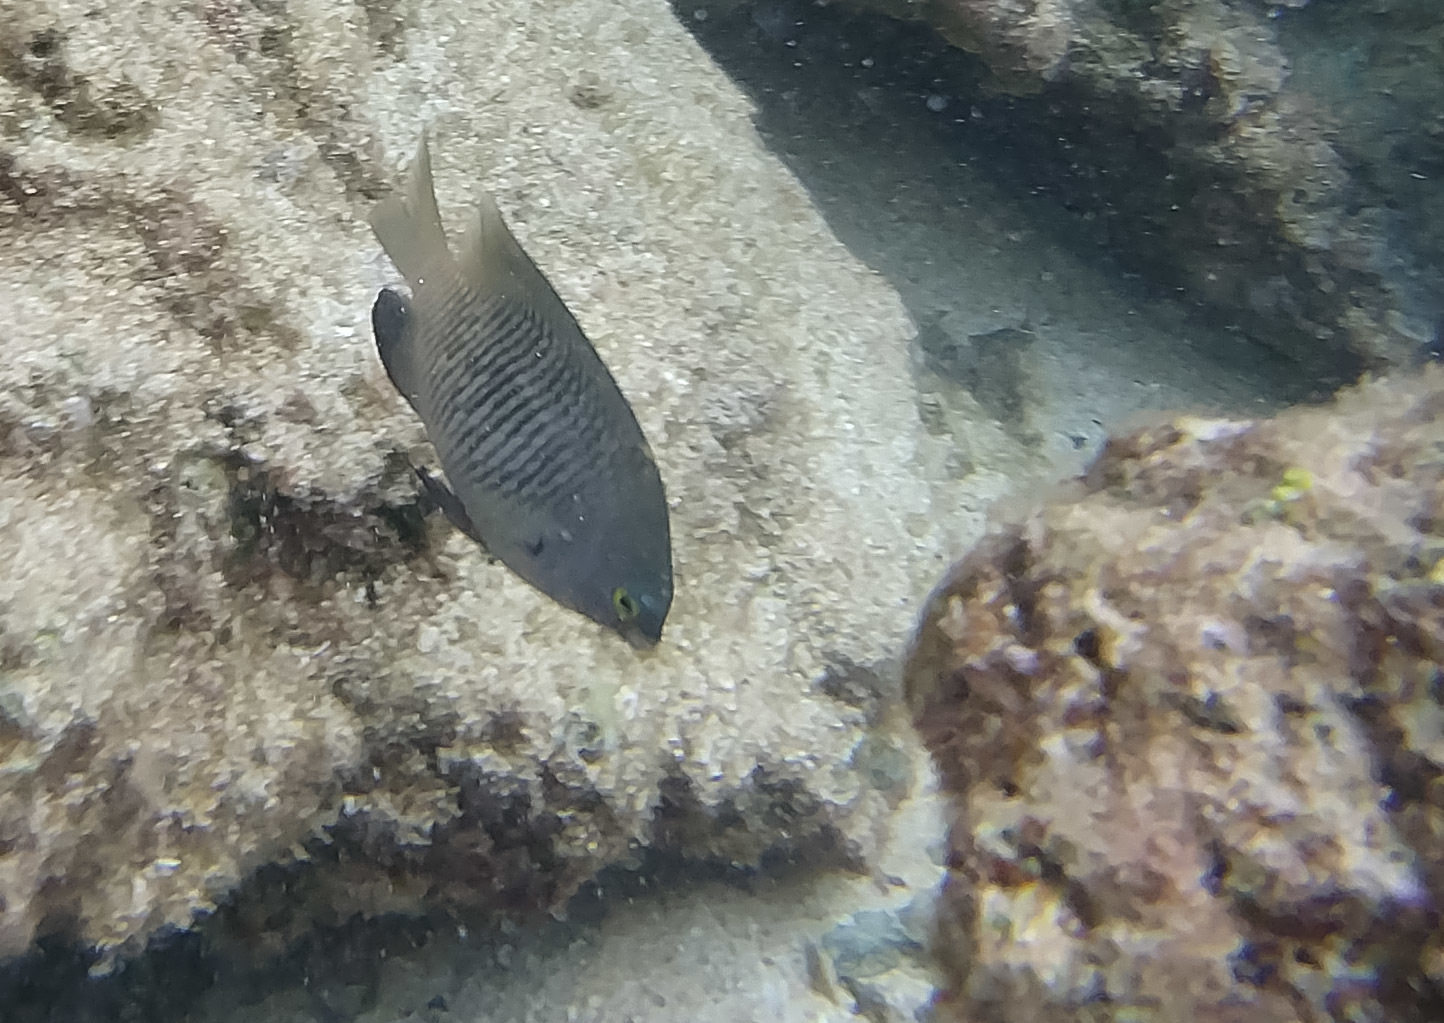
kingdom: Animalia
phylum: Chordata
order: Perciformes
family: Pomacentridae
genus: Stegastes
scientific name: Stegastes fasciolatus
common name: Pacific gregory
